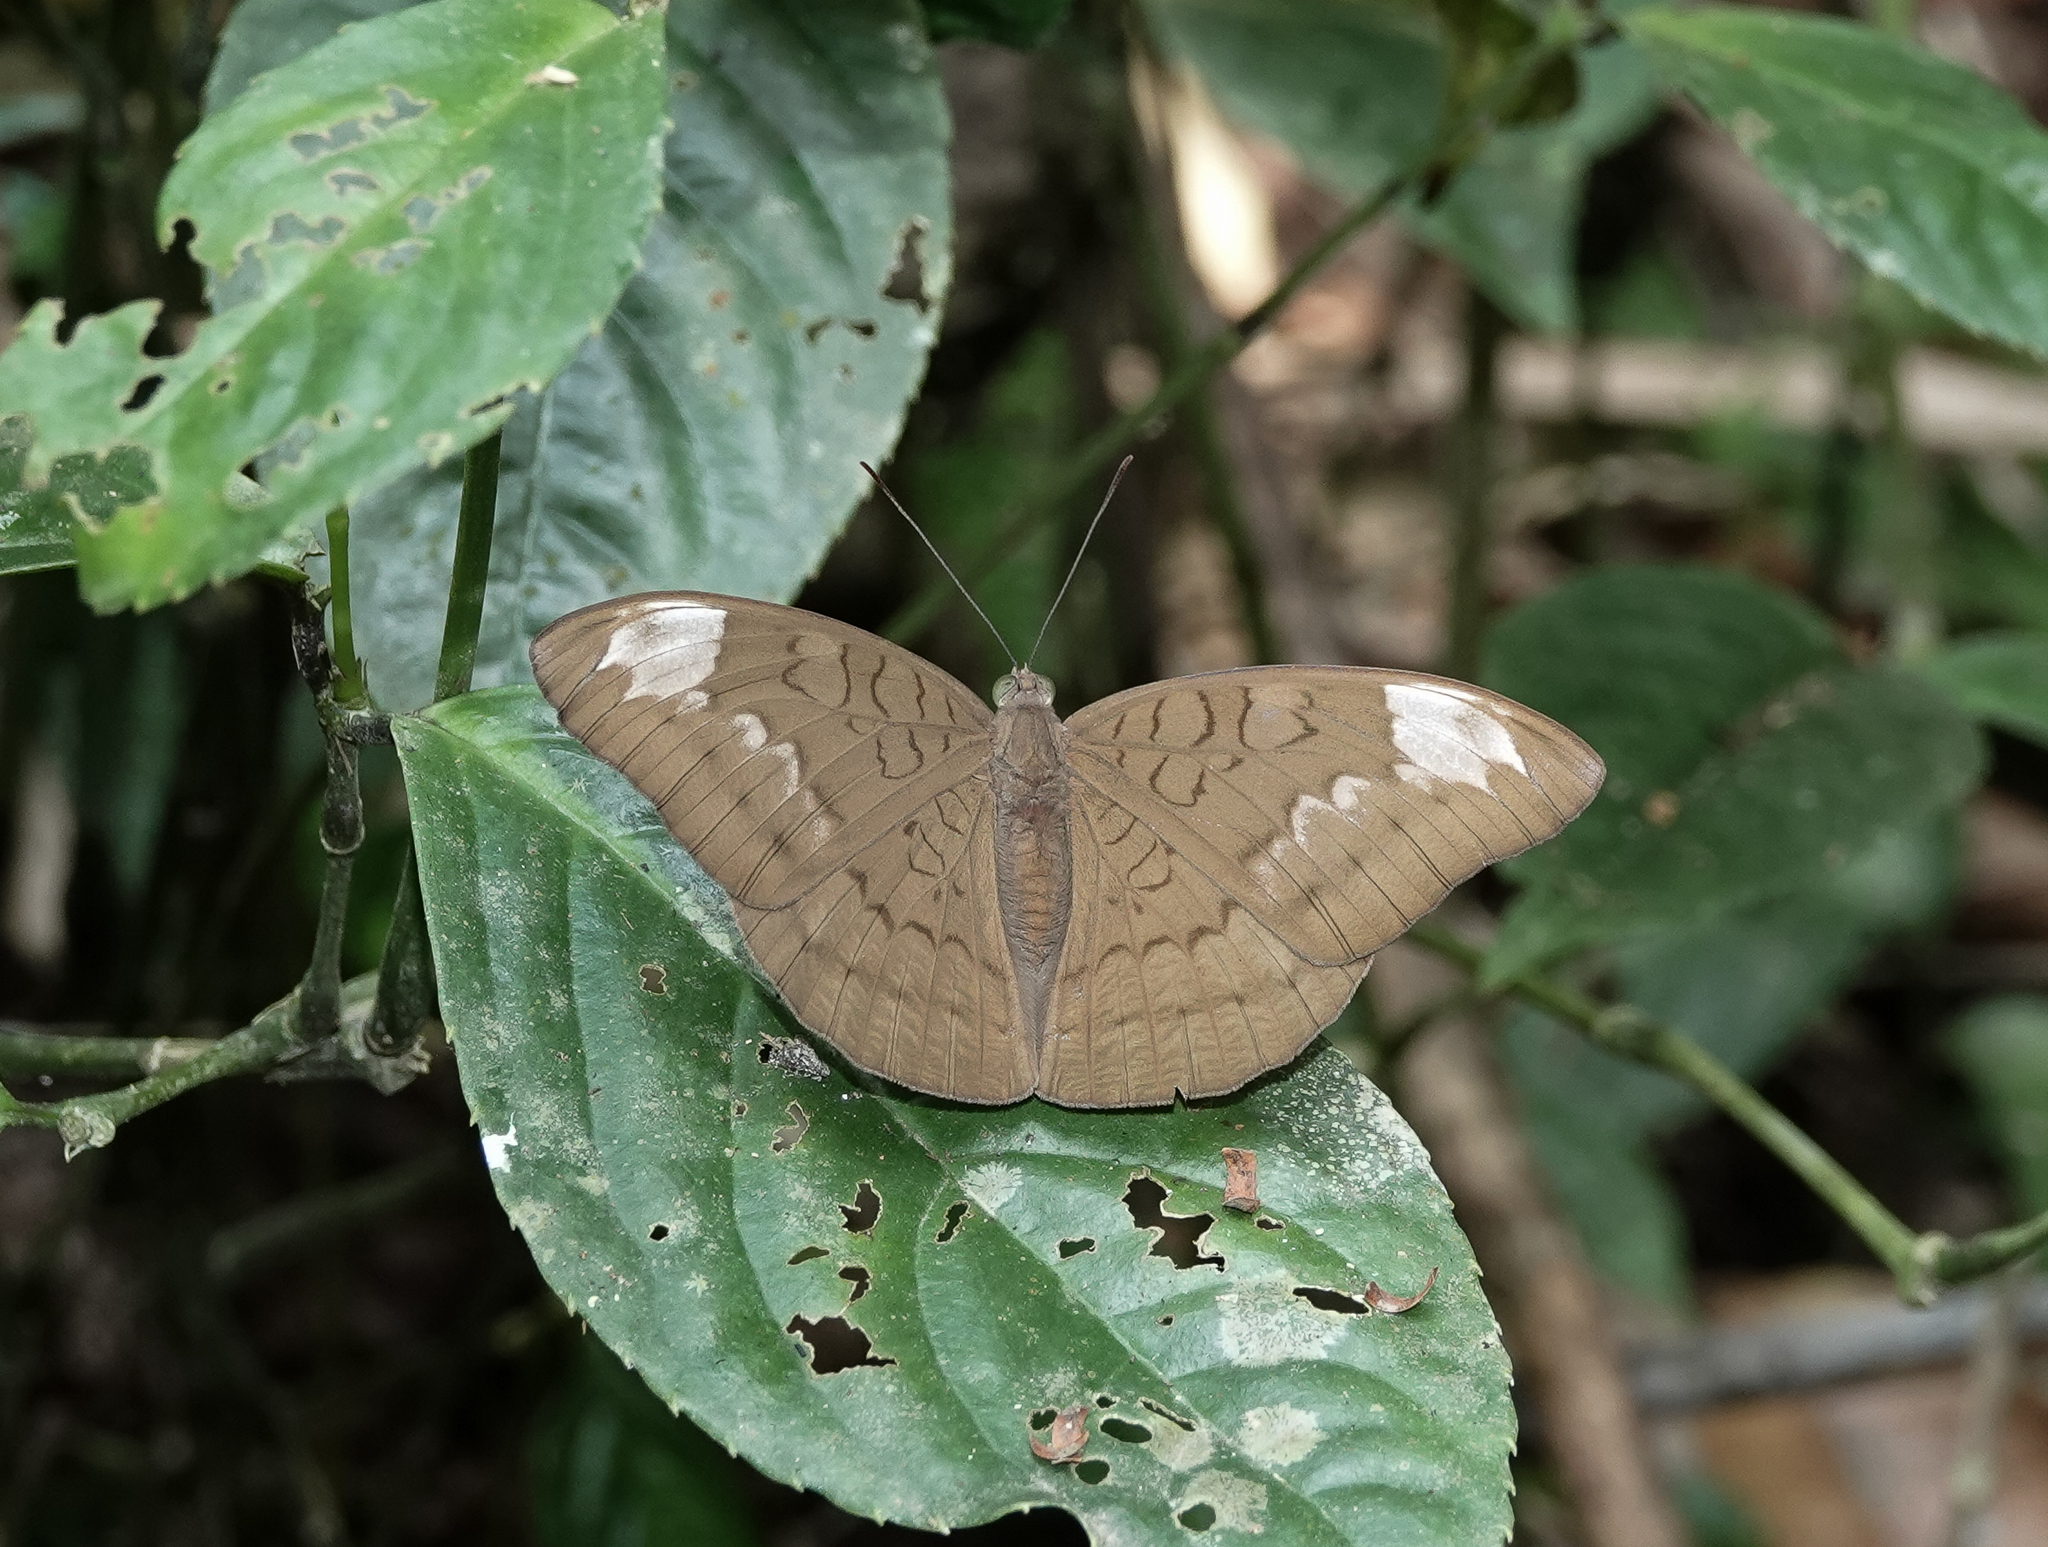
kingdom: Animalia
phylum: Arthropoda
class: Insecta
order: Lepidoptera
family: Nymphalidae
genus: Euthalia
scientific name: Euthalia aconthea
